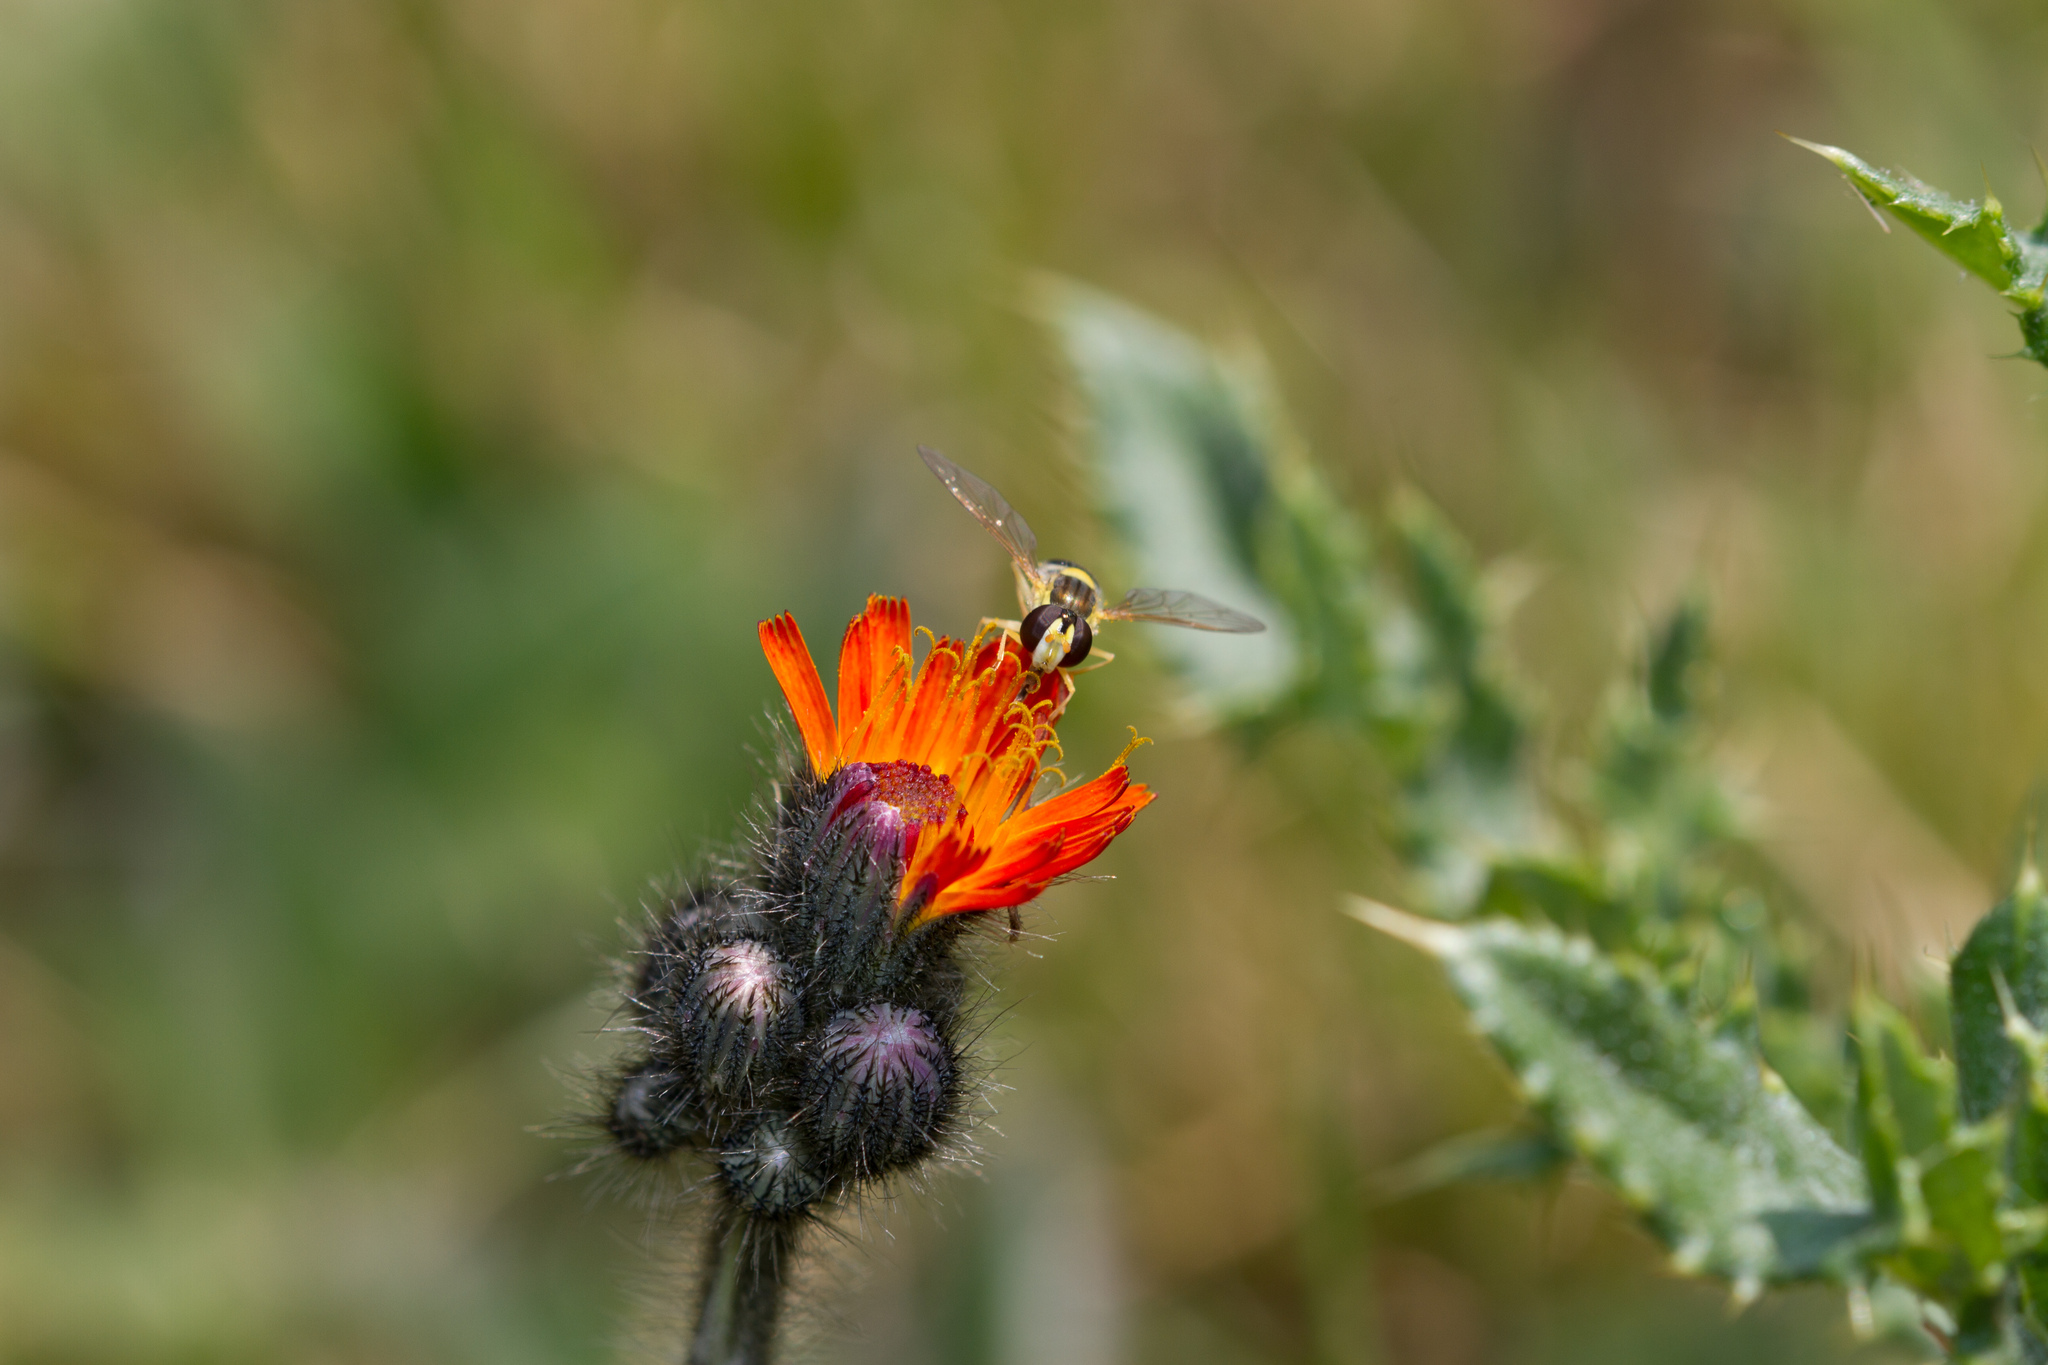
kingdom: Animalia
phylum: Arthropoda
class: Insecta
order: Diptera
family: Syrphidae
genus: Sphaerophoria
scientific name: Sphaerophoria
